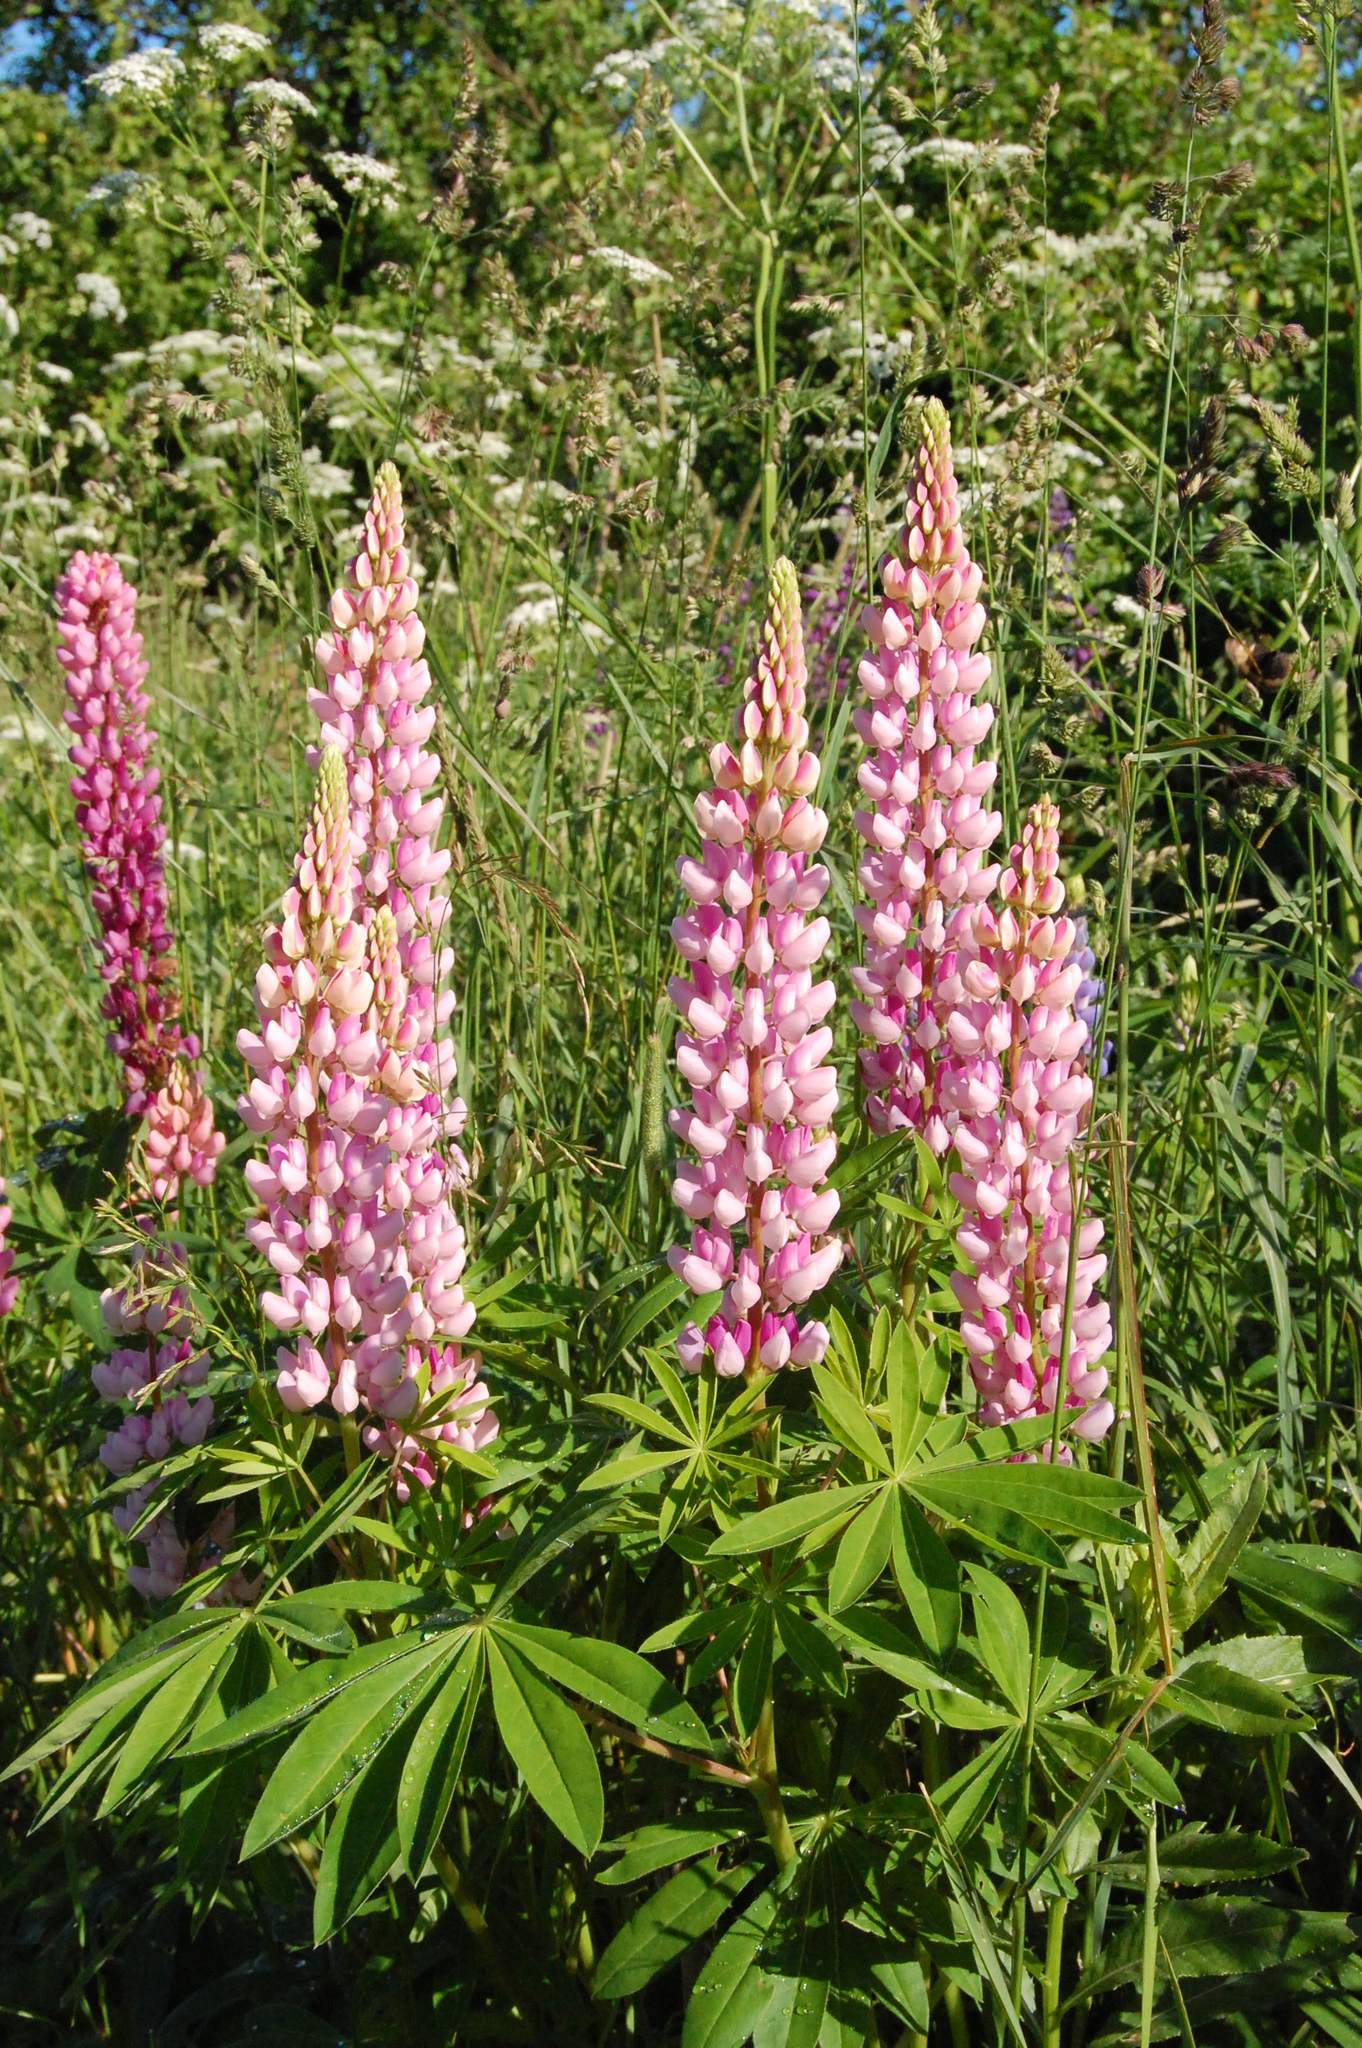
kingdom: Plantae
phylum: Tracheophyta
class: Magnoliopsida
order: Fabales
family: Fabaceae
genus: Lupinus
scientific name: Lupinus polyphyllus
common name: Garden lupin
